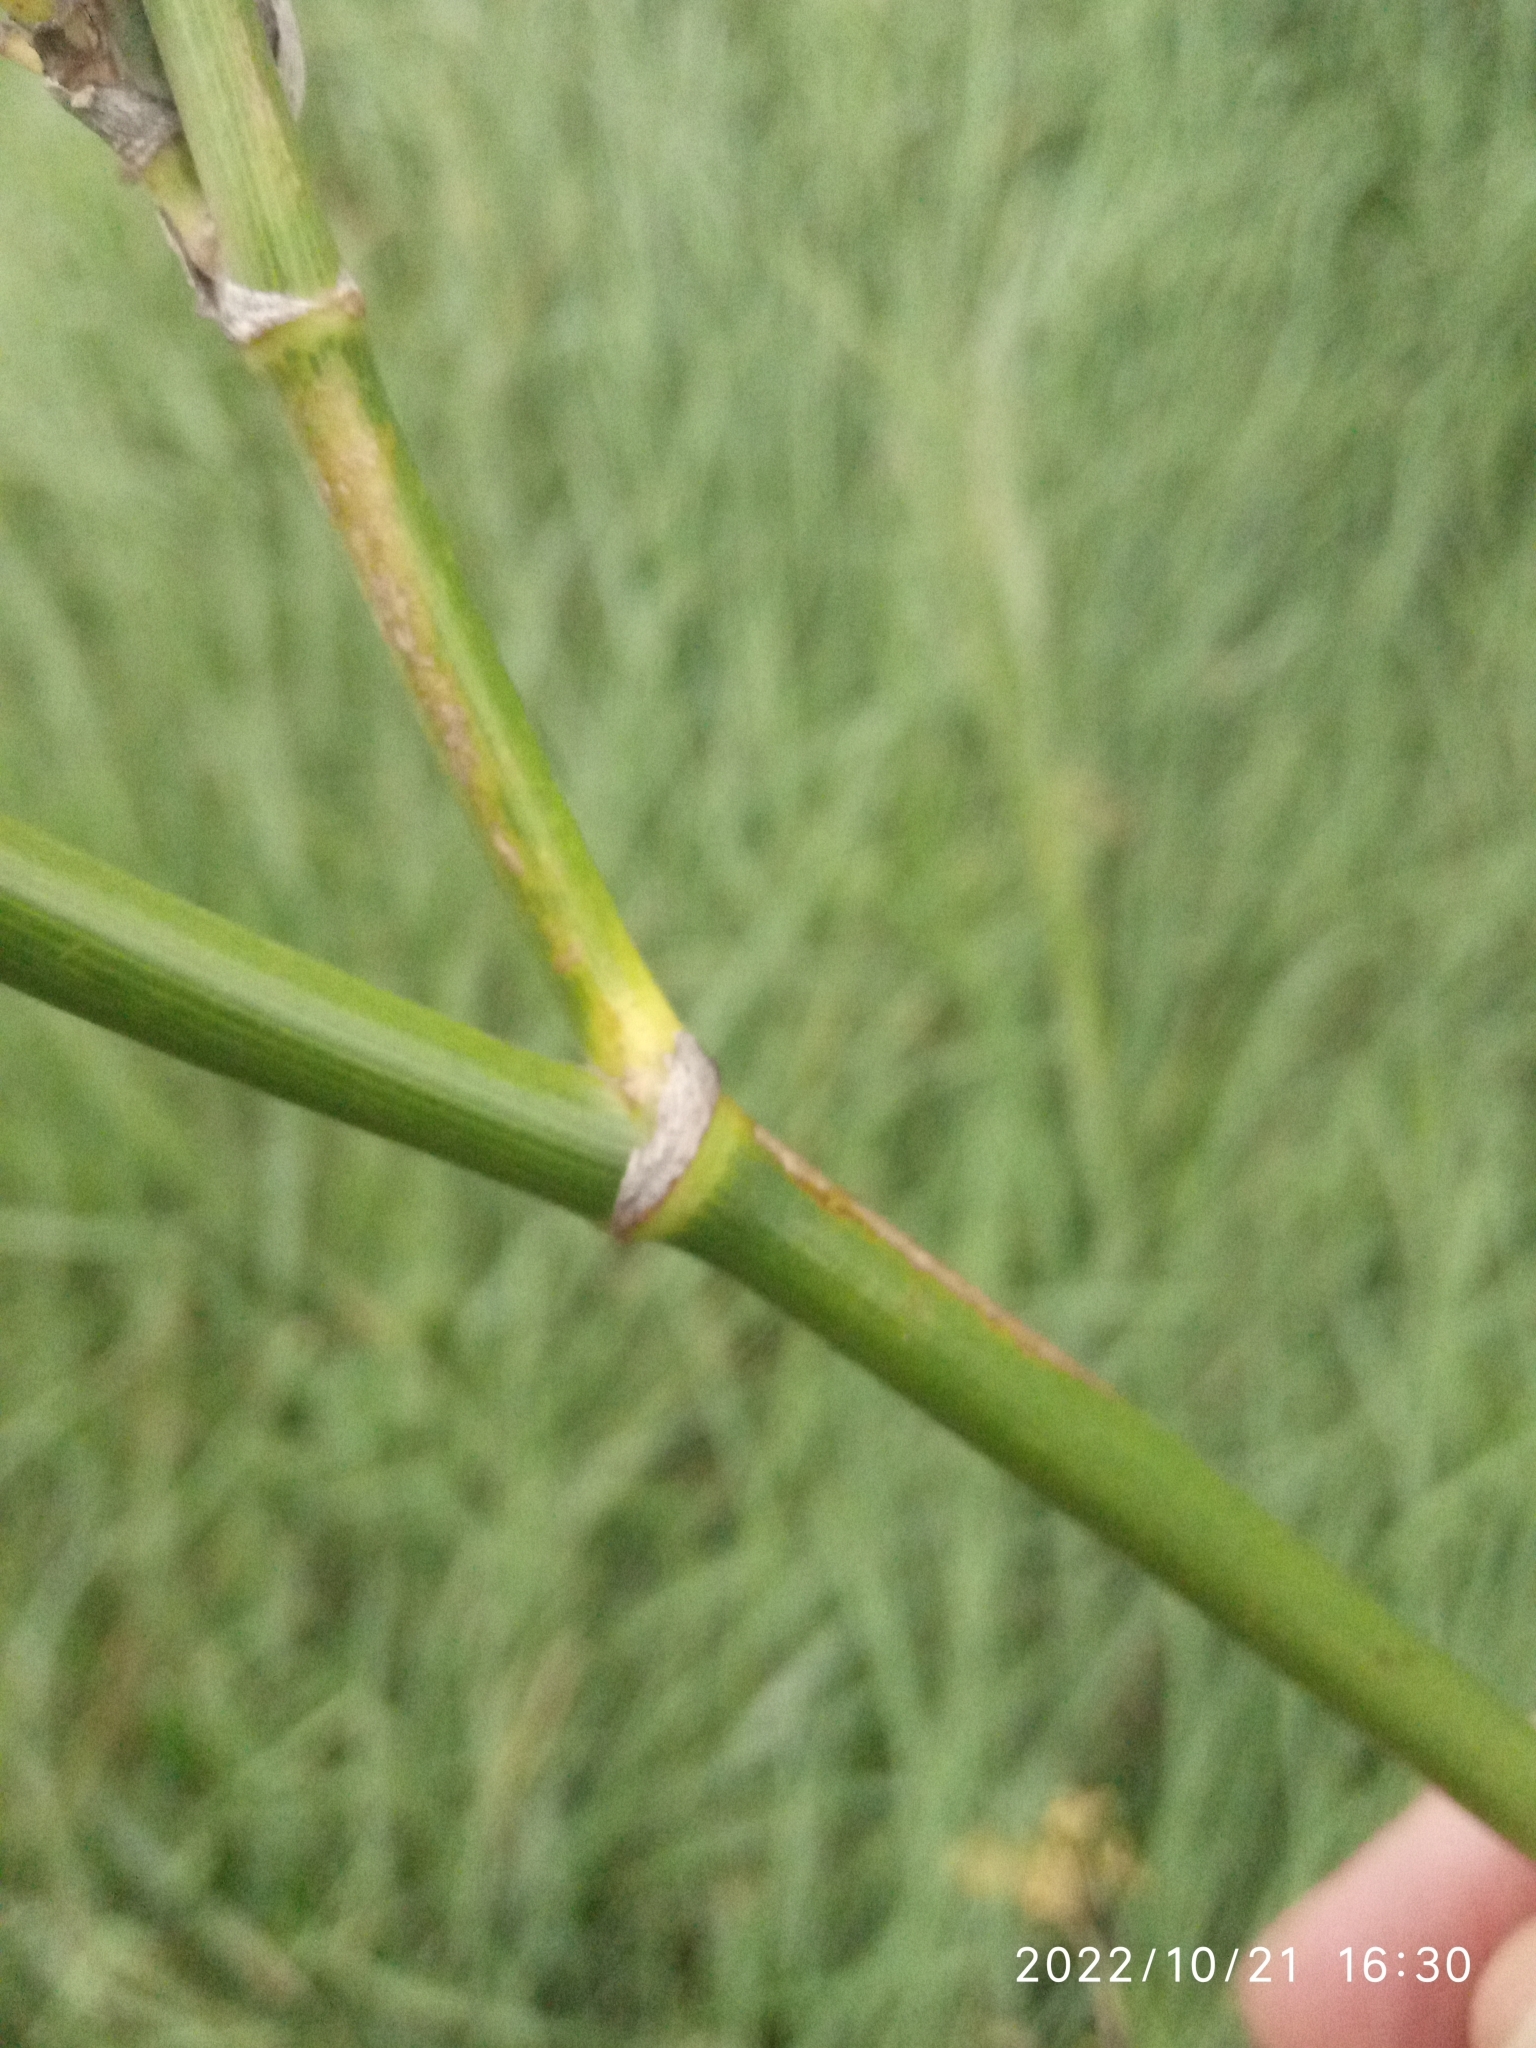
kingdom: Plantae
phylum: Tracheophyta
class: Magnoliopsida
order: Apiales
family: Apiaceae
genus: Foeniculum
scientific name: Foeniculum vulgare
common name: Fennel
